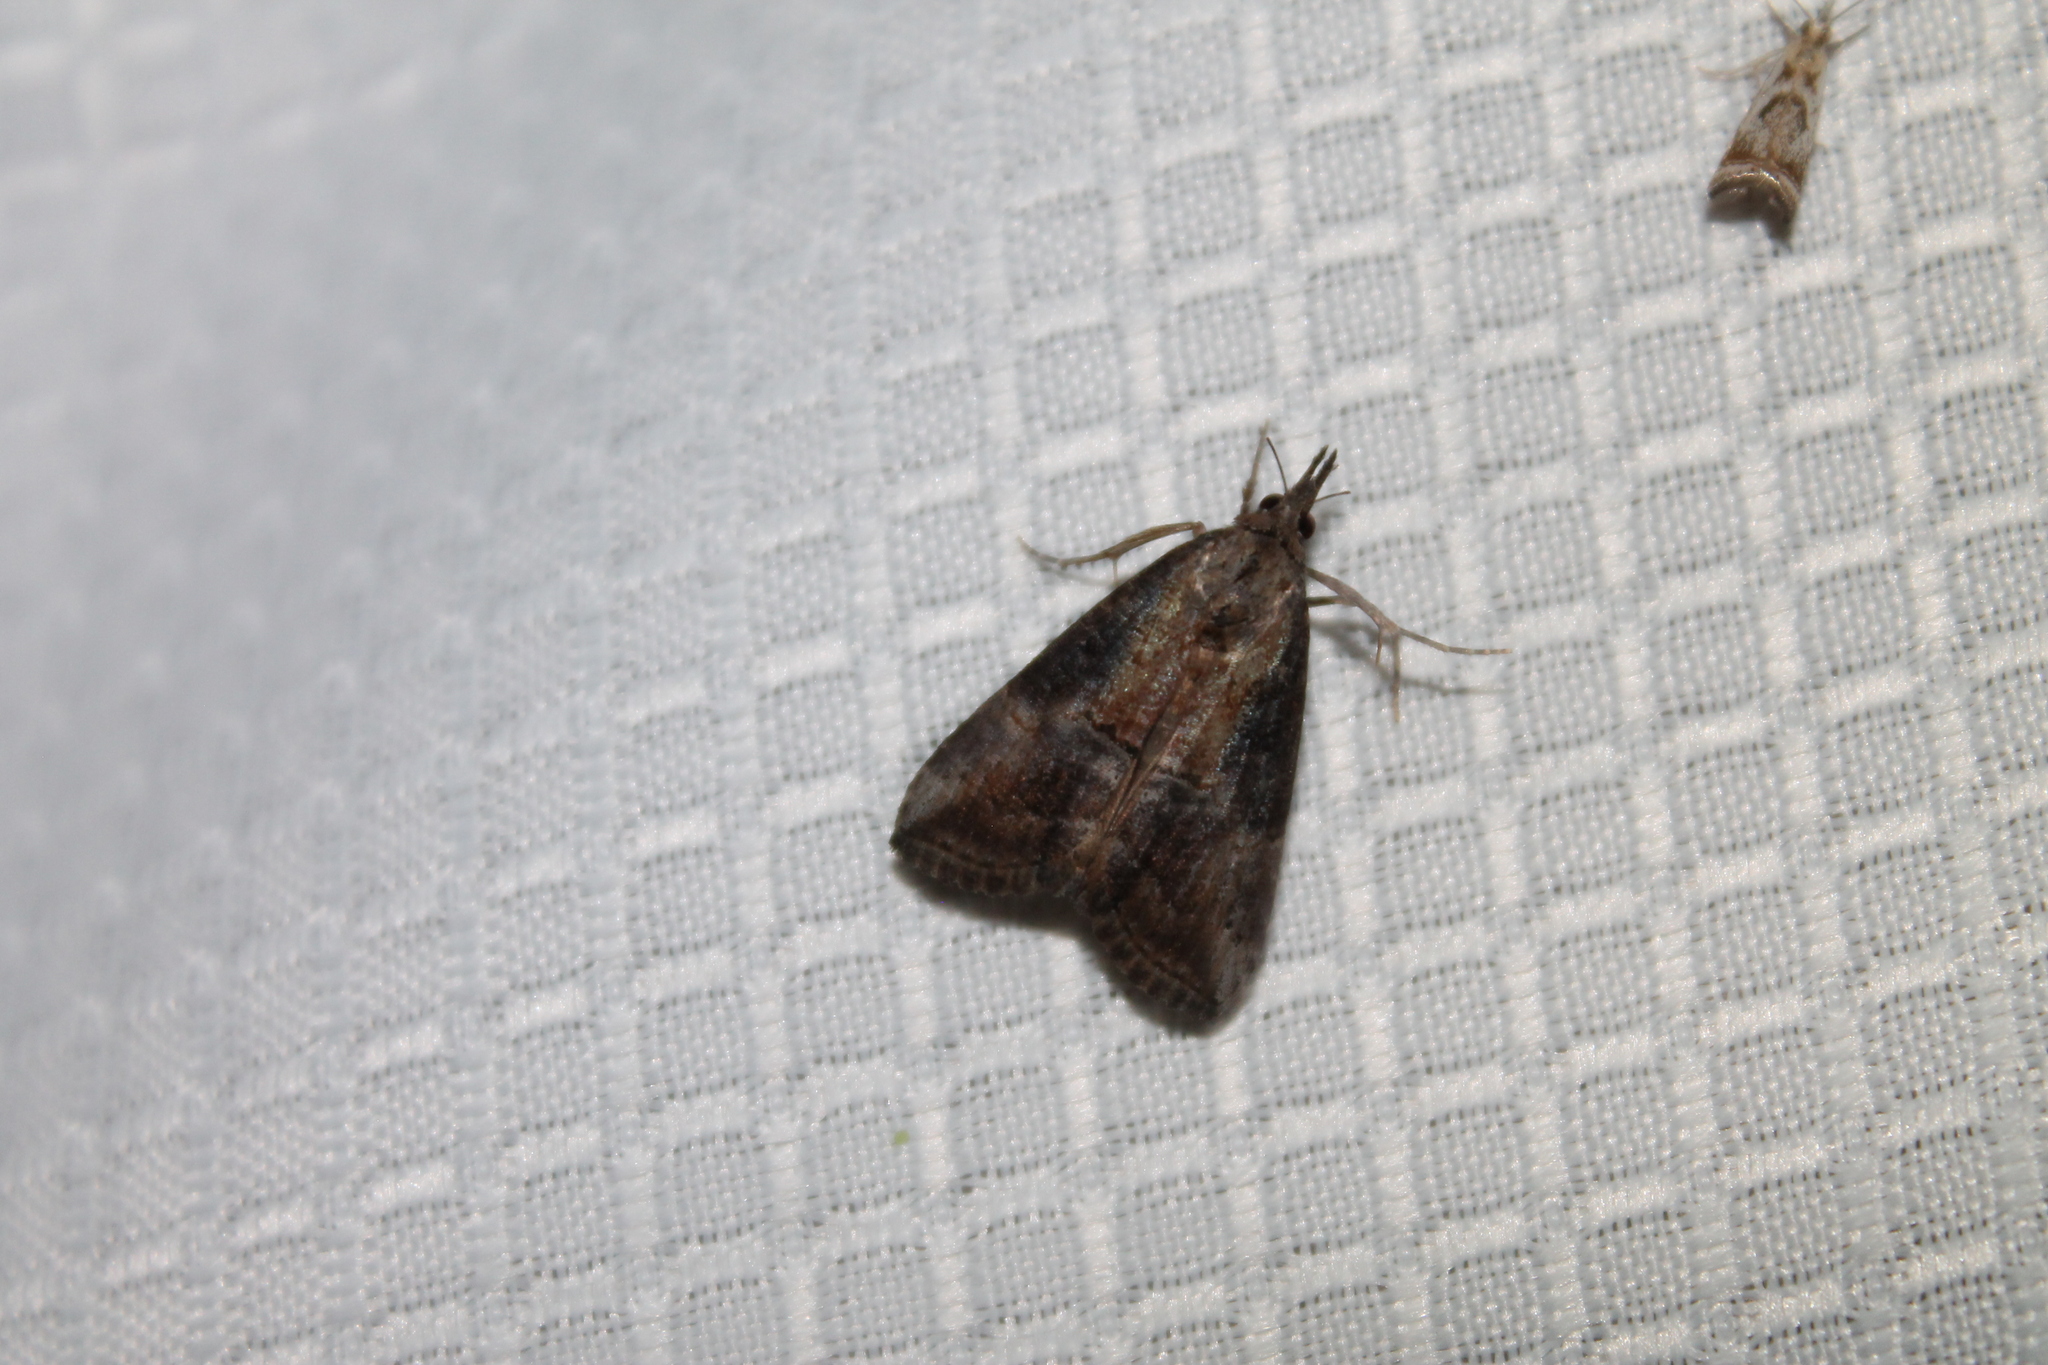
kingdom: Animalia
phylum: Arthropoda
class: Insecta
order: Lepidoptera
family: Erebidae
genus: Hypena
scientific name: Hypena scabra
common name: Green cloverworm
